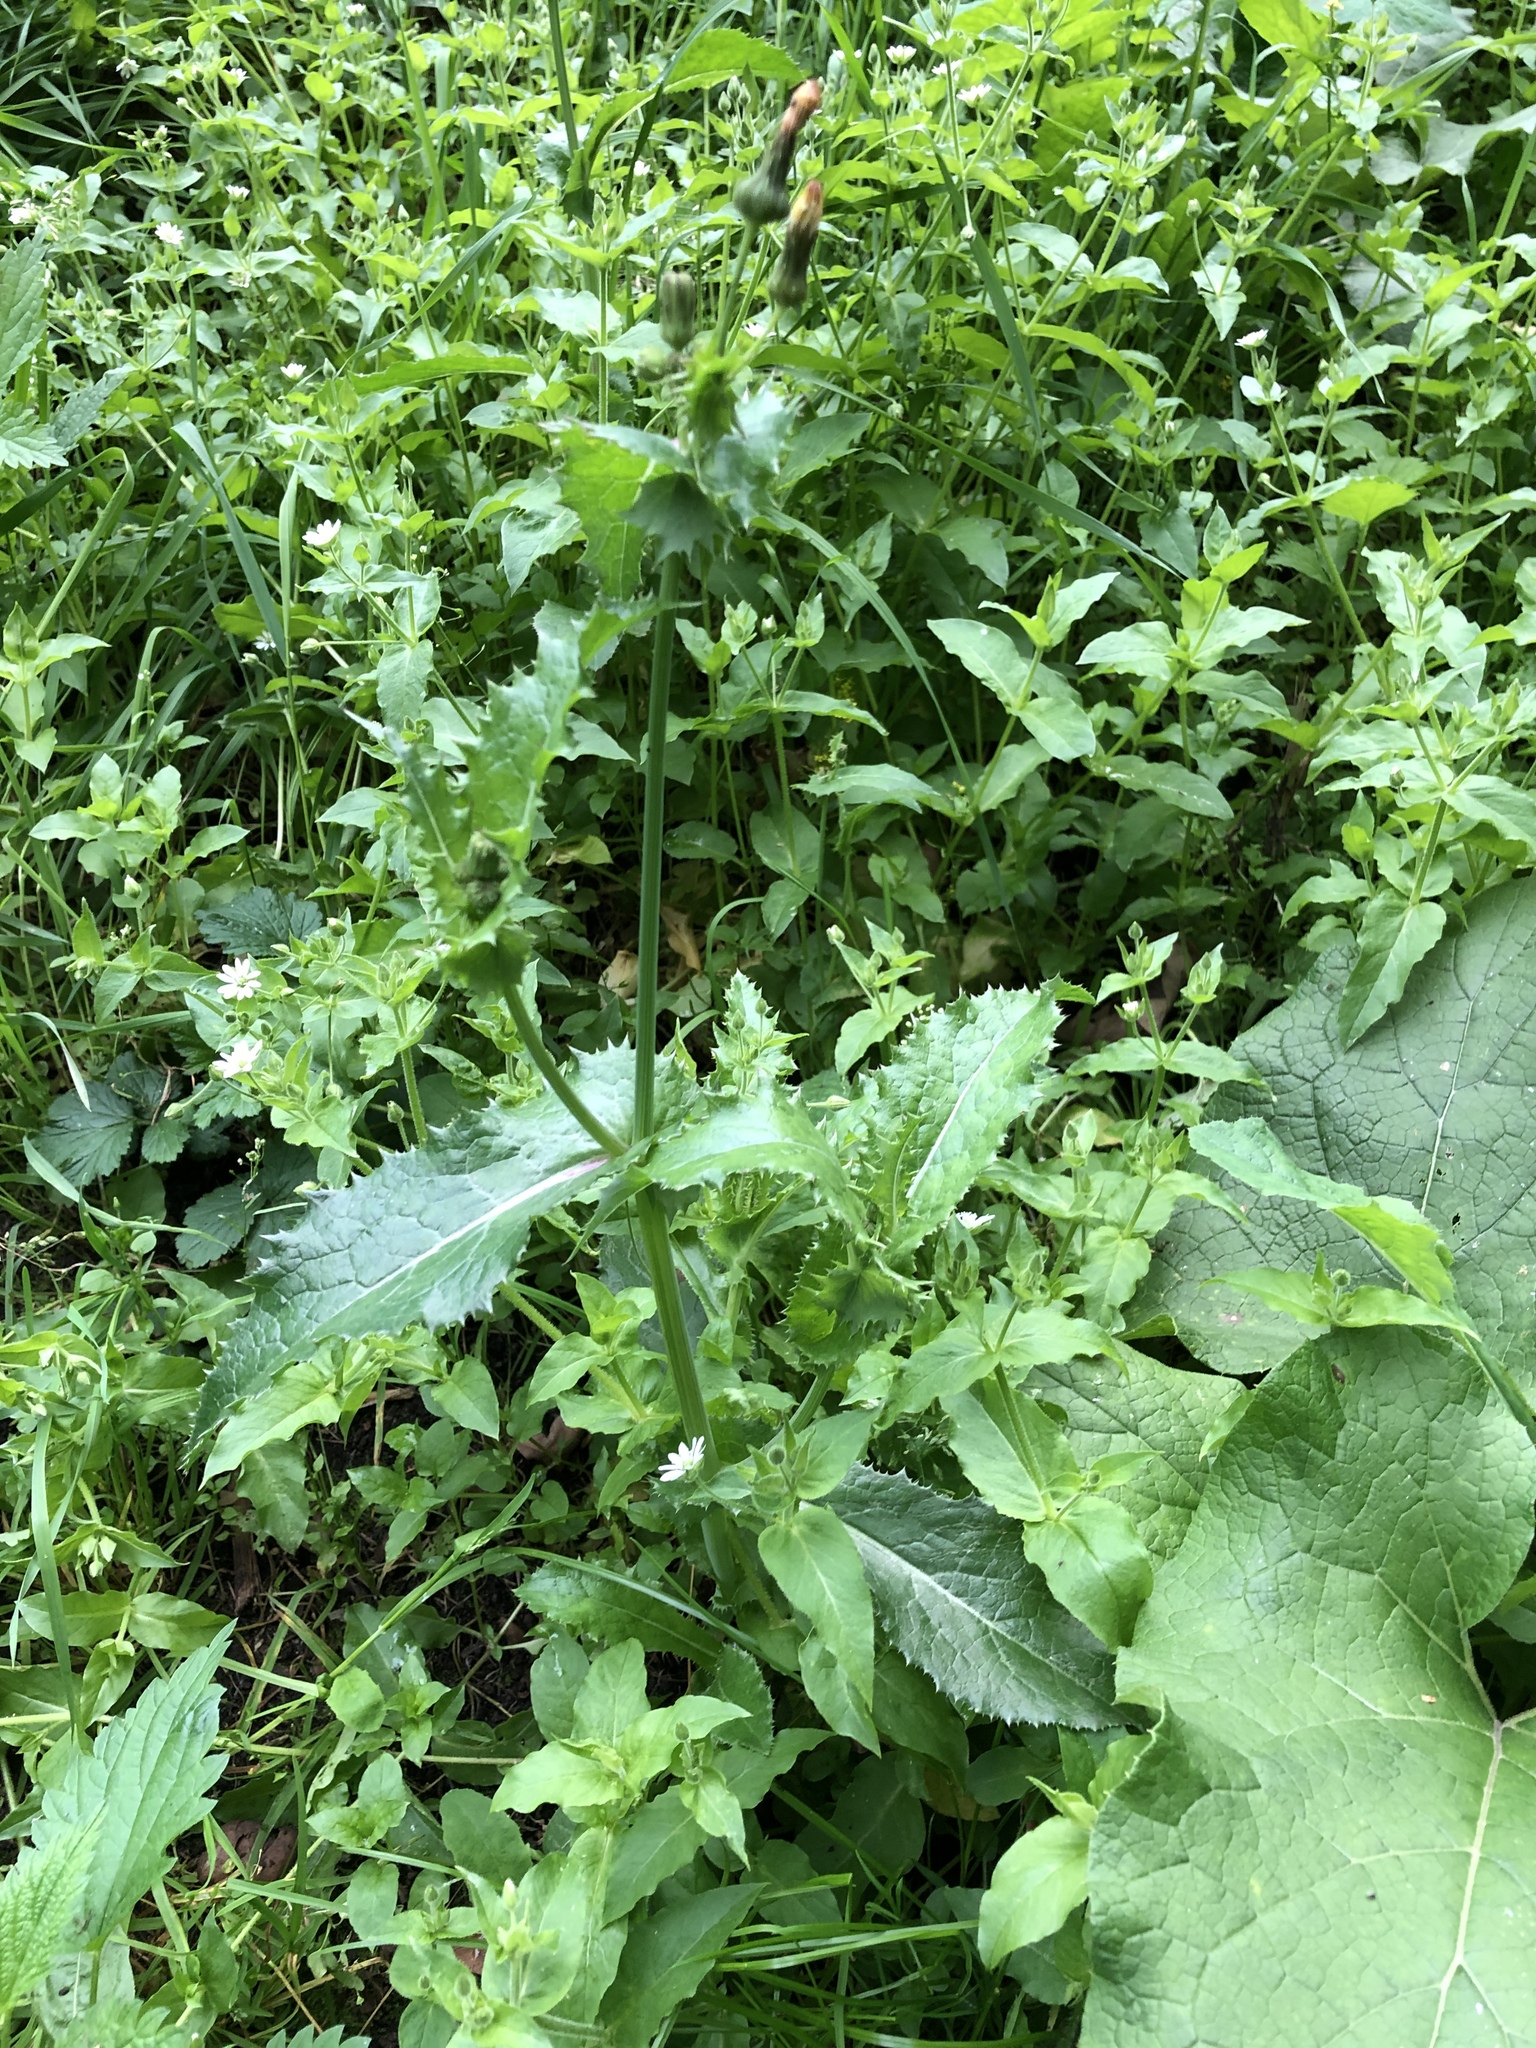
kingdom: Plantae
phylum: Tracheophyta
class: Magnoliopsida
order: Asterales
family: Asteraceae
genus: Sonchus
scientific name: Sonchus asper
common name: Prickly sow-thistle
